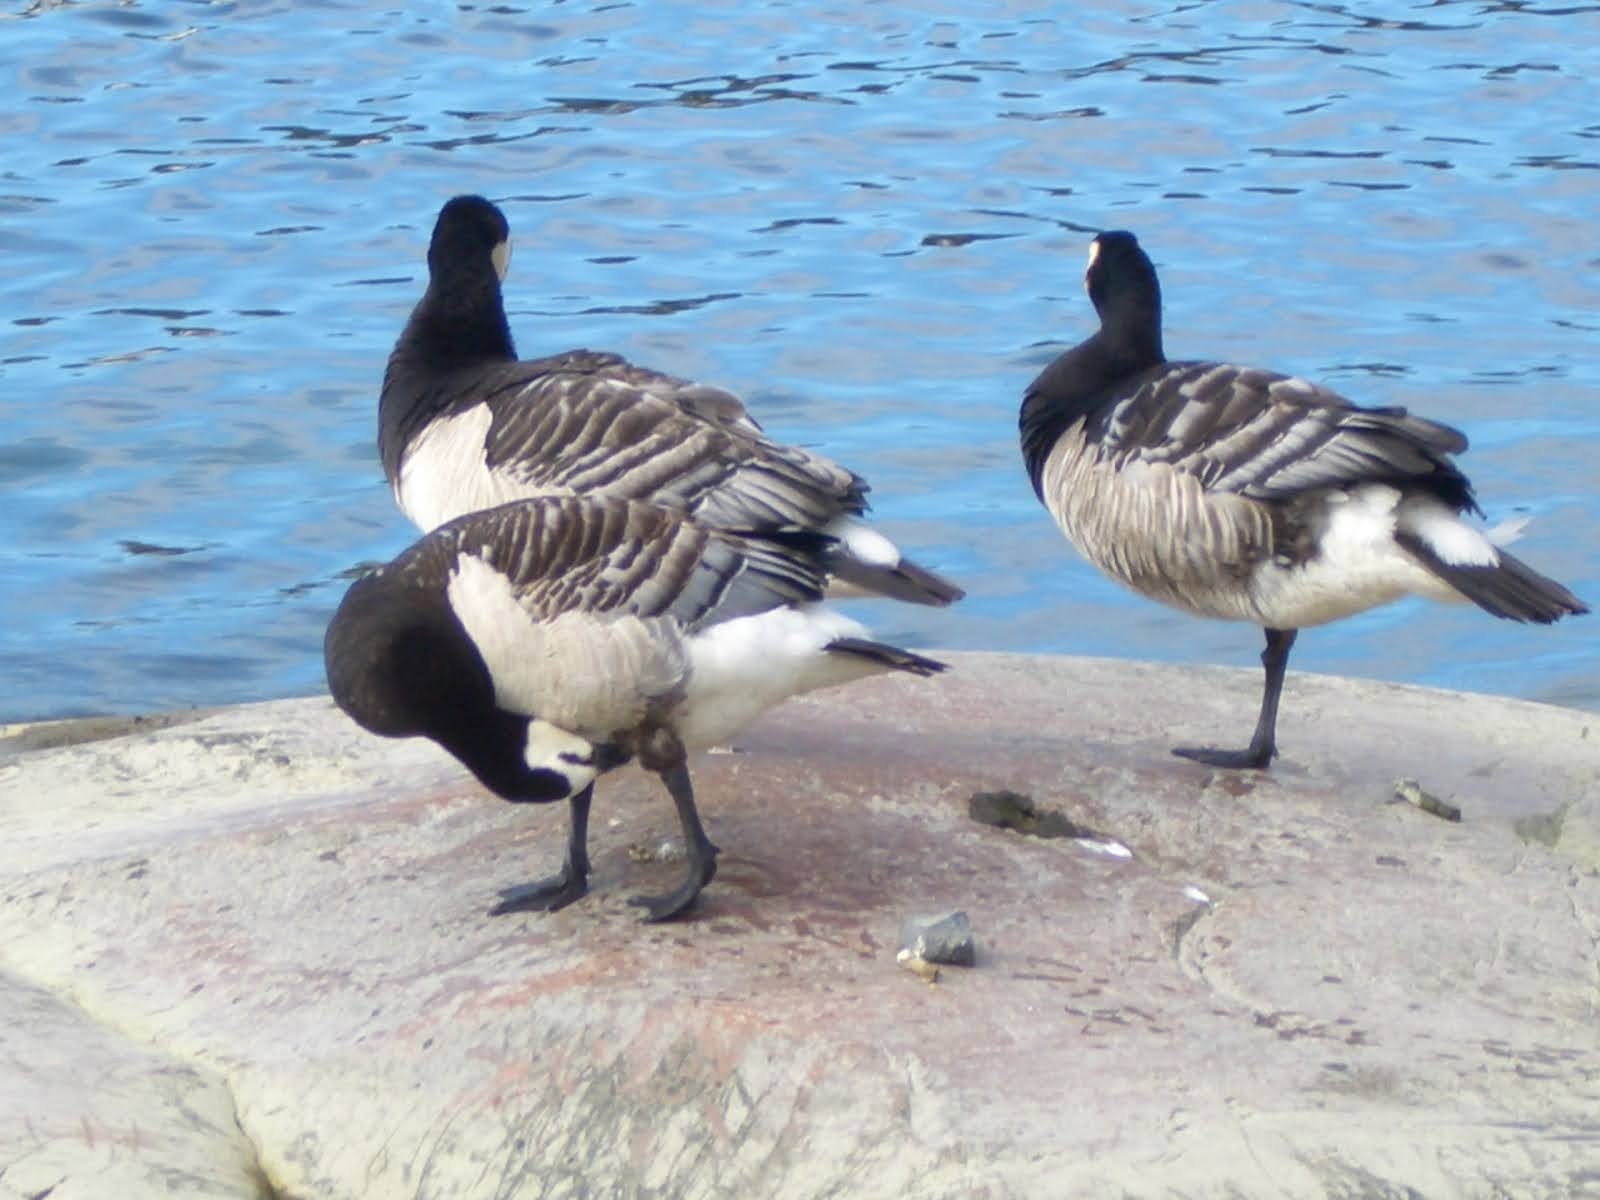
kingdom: Animalia
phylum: Chordata
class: Aves
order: Anseriformes
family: Anatidae
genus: Branta
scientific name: Branta leucopsis
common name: Barnacle goose
